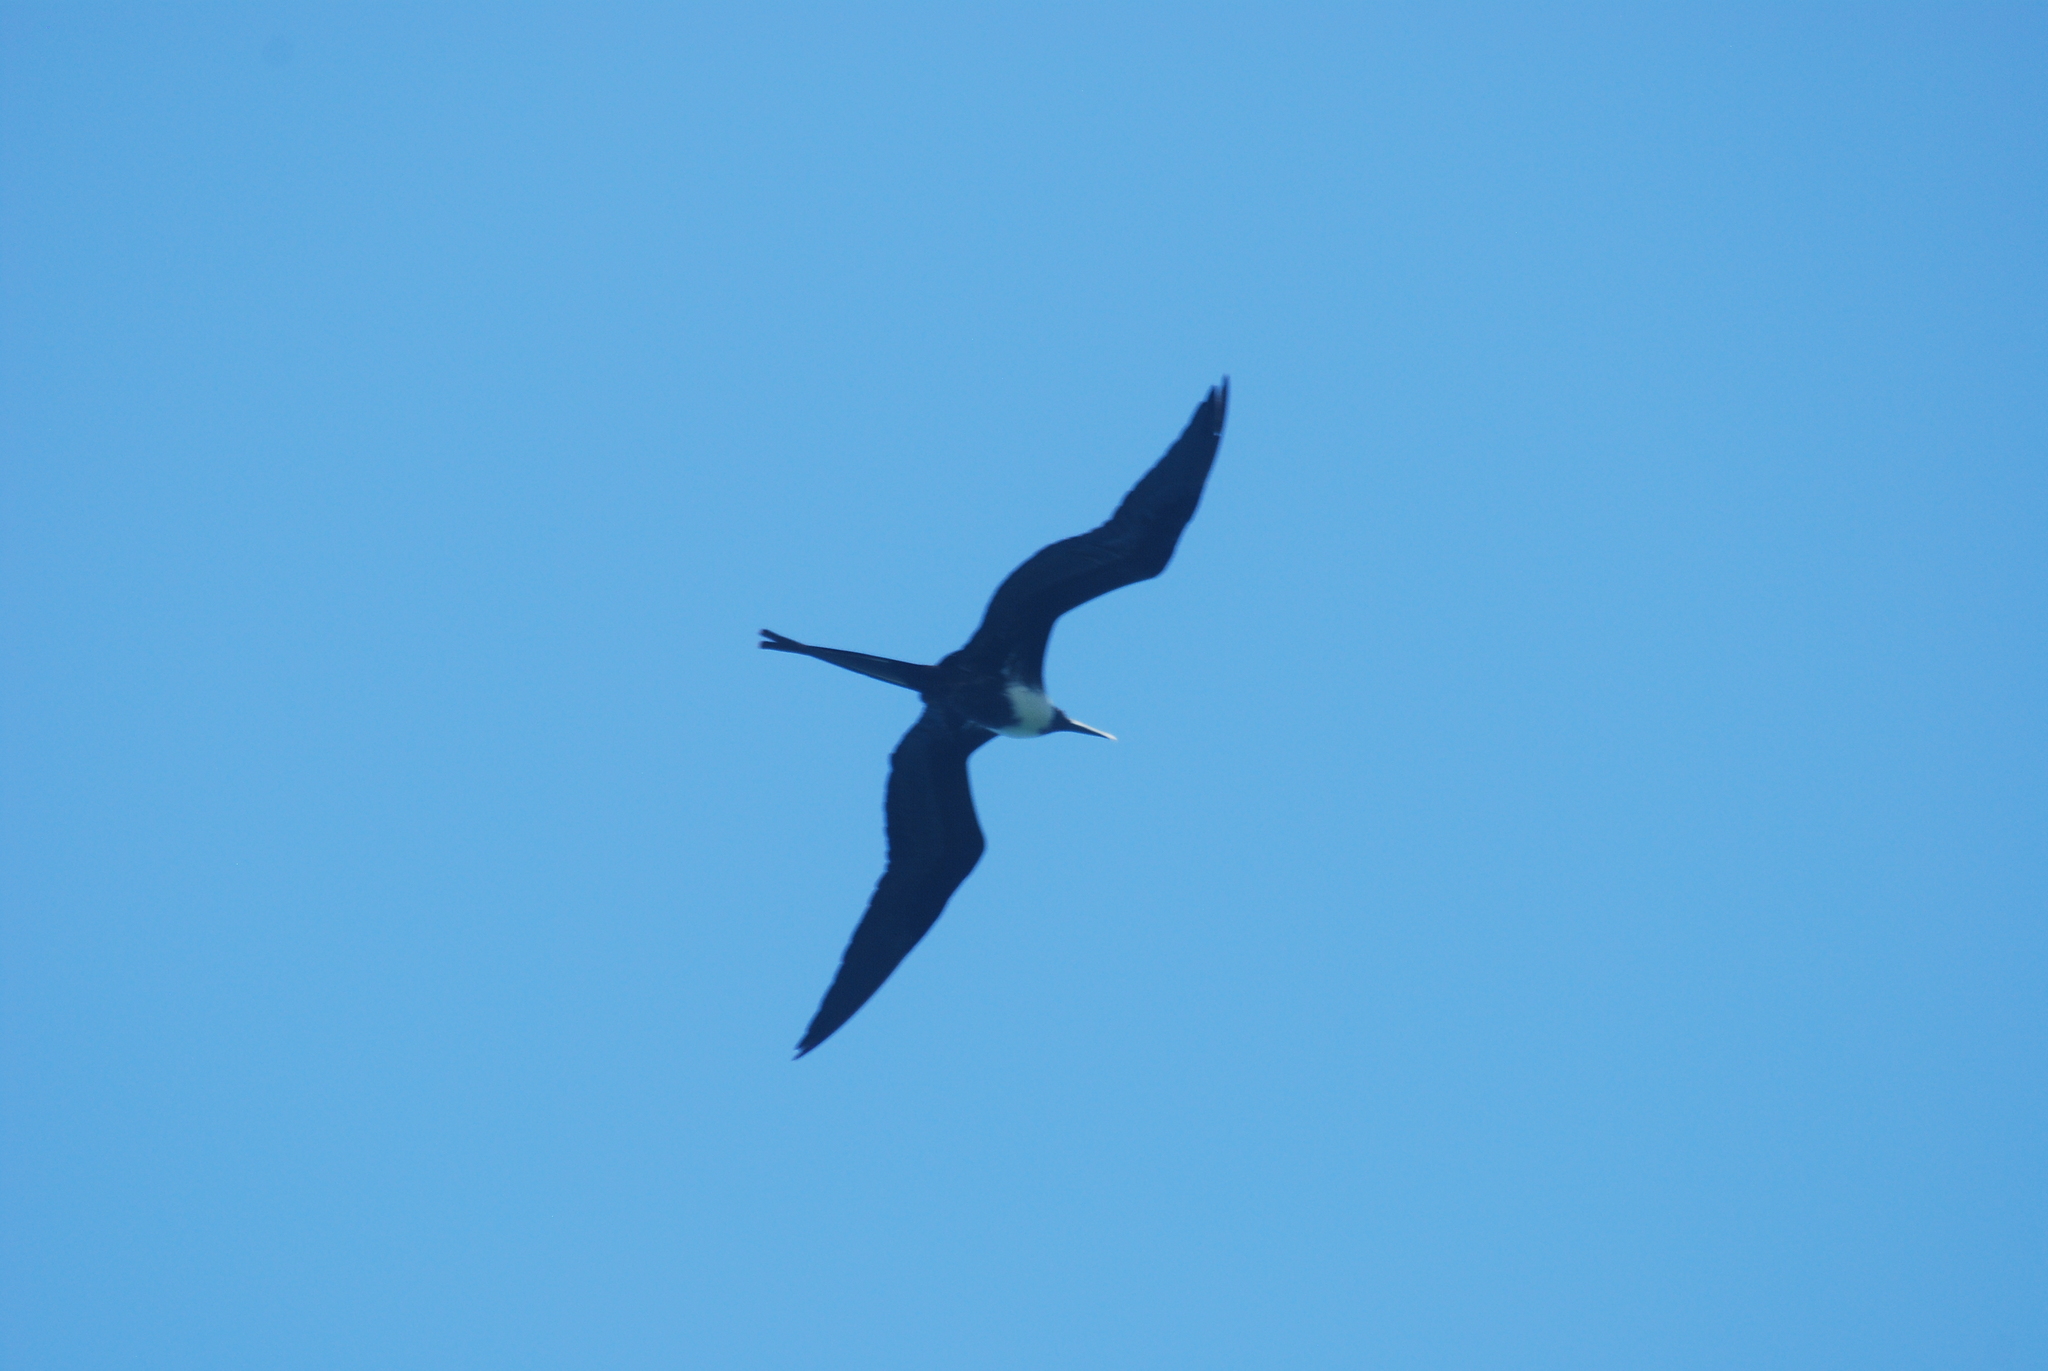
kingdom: Animalia
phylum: Chordata
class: Aves
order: Suliformes
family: Fregatidae
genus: Fregata
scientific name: Fregata magnificens
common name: Magnificent frigatebird
